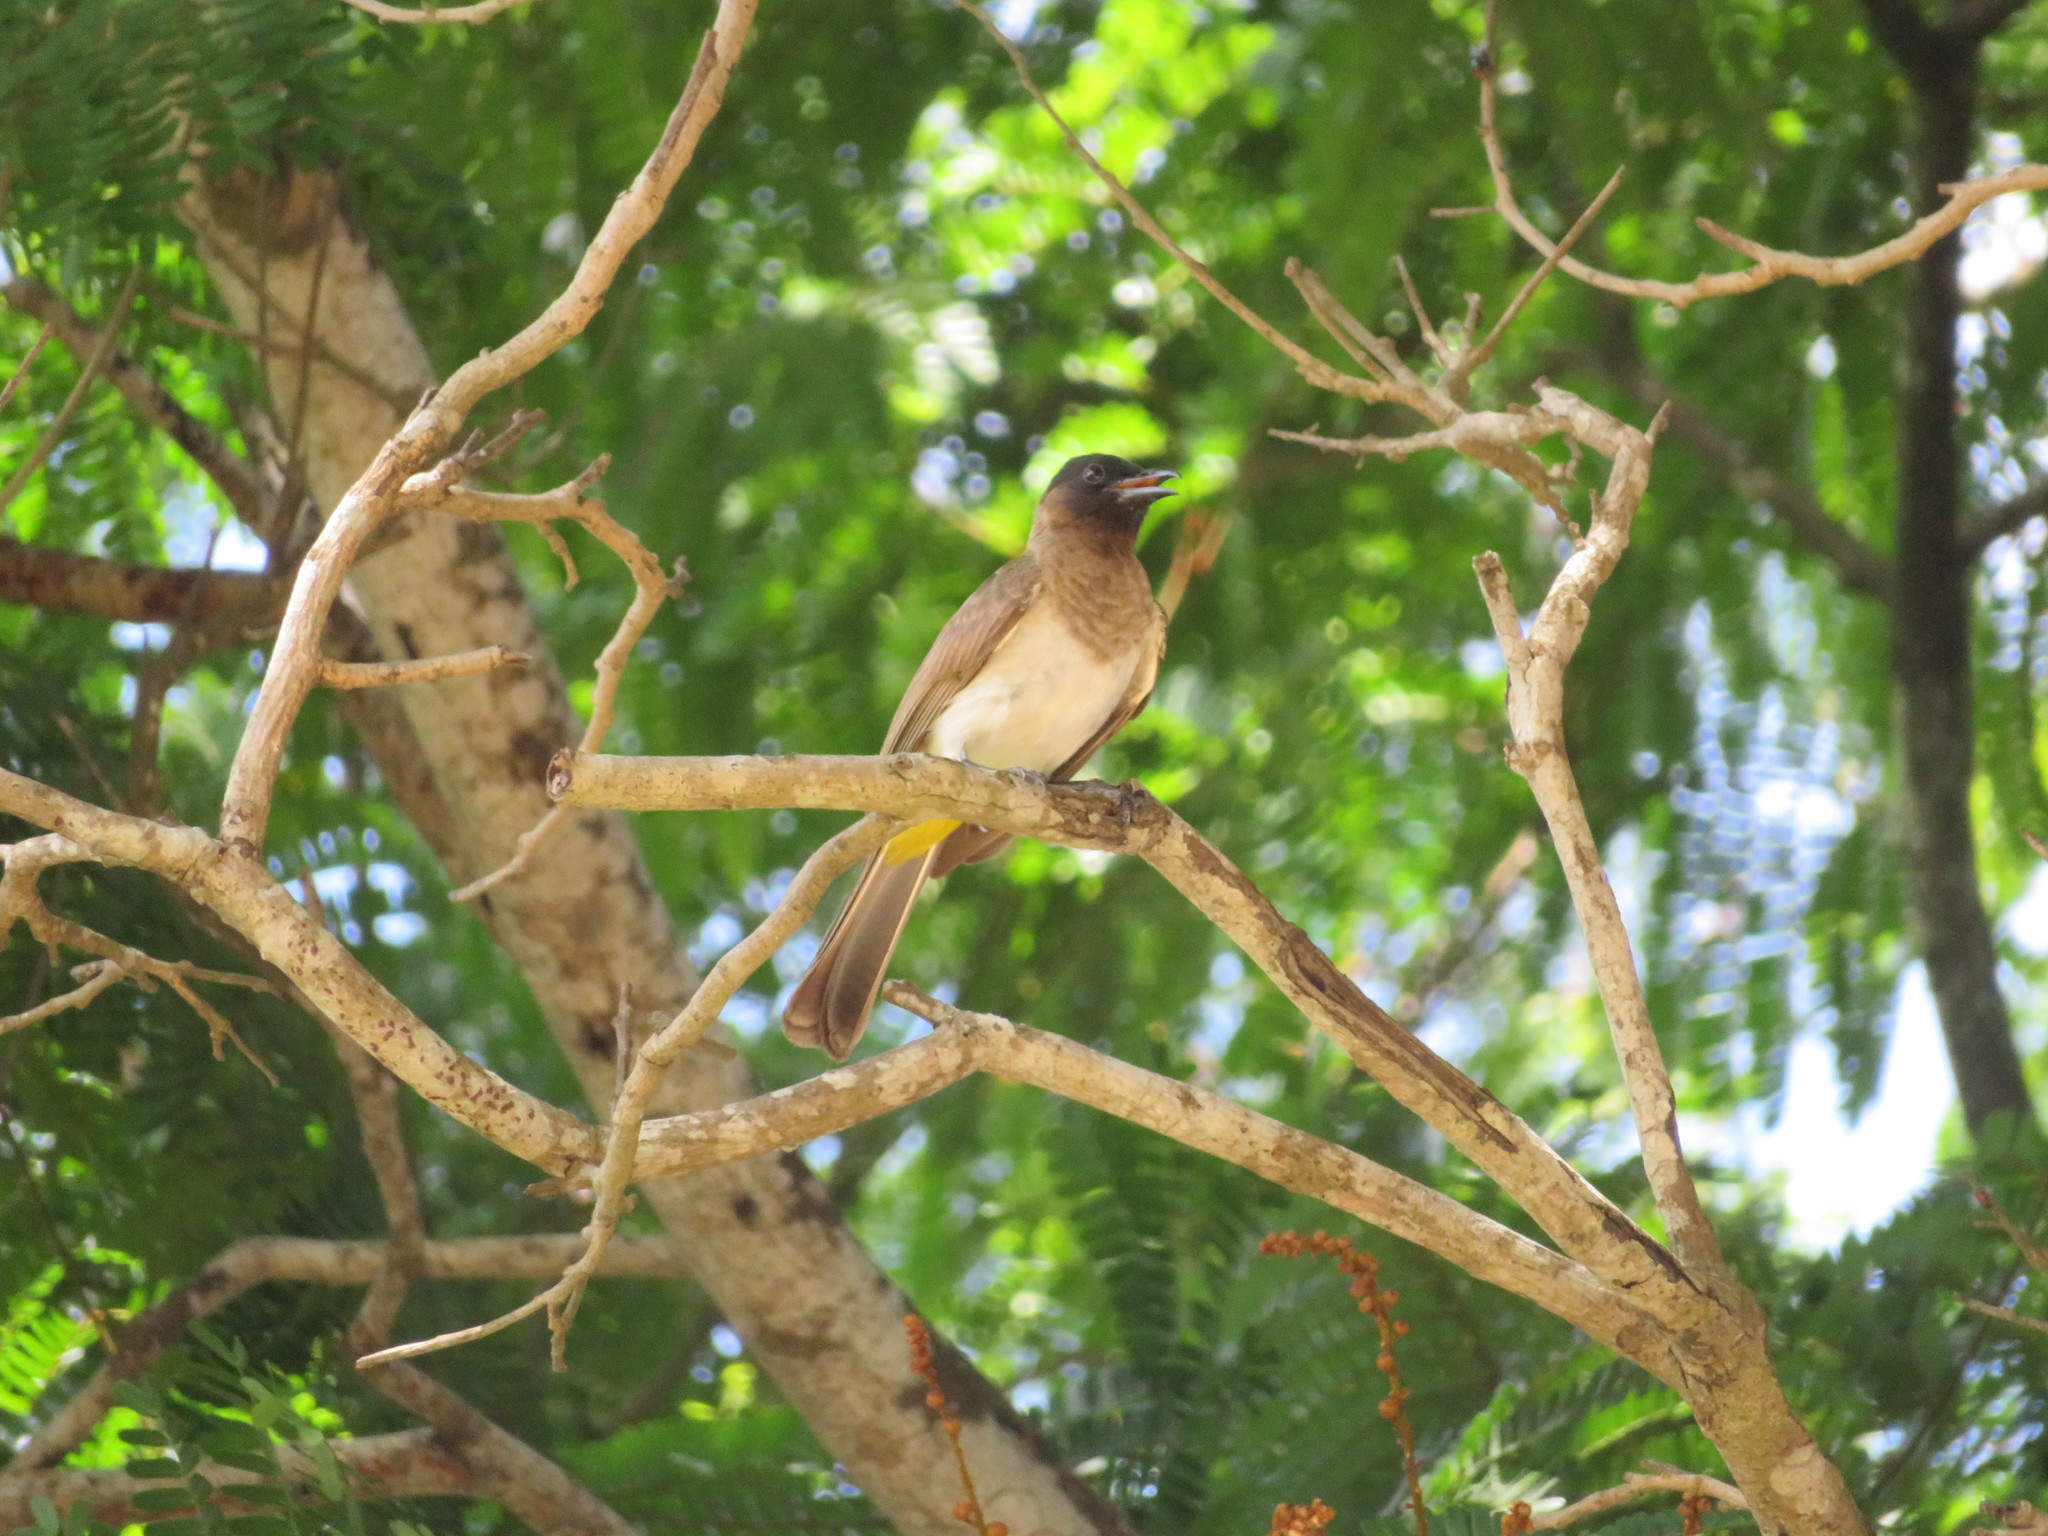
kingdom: Animalia
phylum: Chordata
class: Aves
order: Passeriformes
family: Pycnonotidae
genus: Pycnonotus
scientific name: Pycnonotus barbatus
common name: Common bulbul
